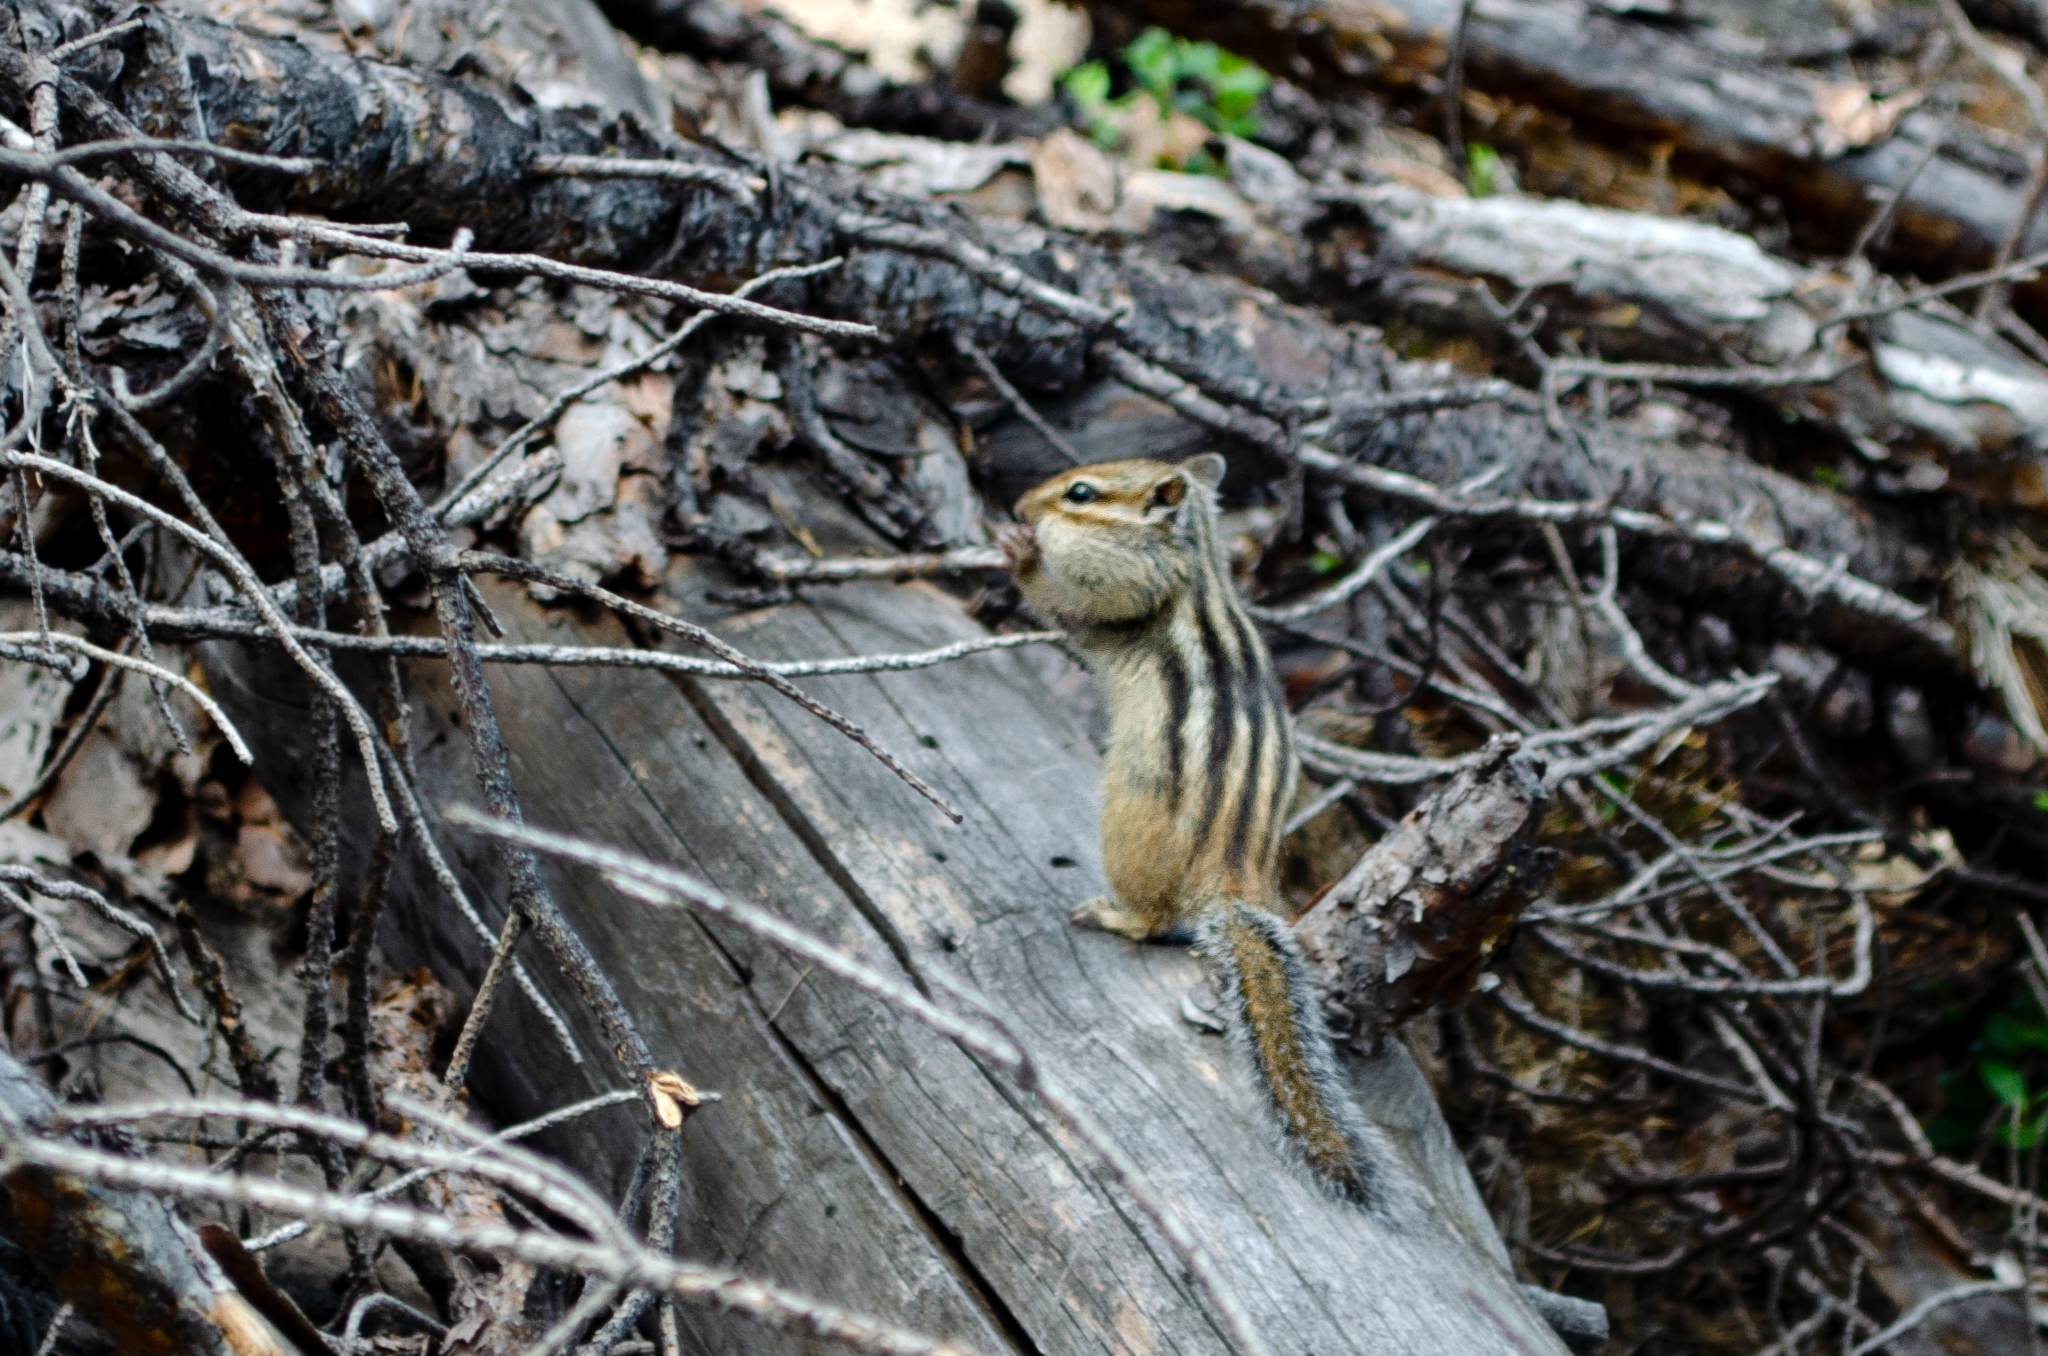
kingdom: Animalia
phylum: Chordata
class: Mammalia
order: Rodentia
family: Sciuridae
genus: Tamias
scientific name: Tamias sibiricus
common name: Siberian chipmunk
